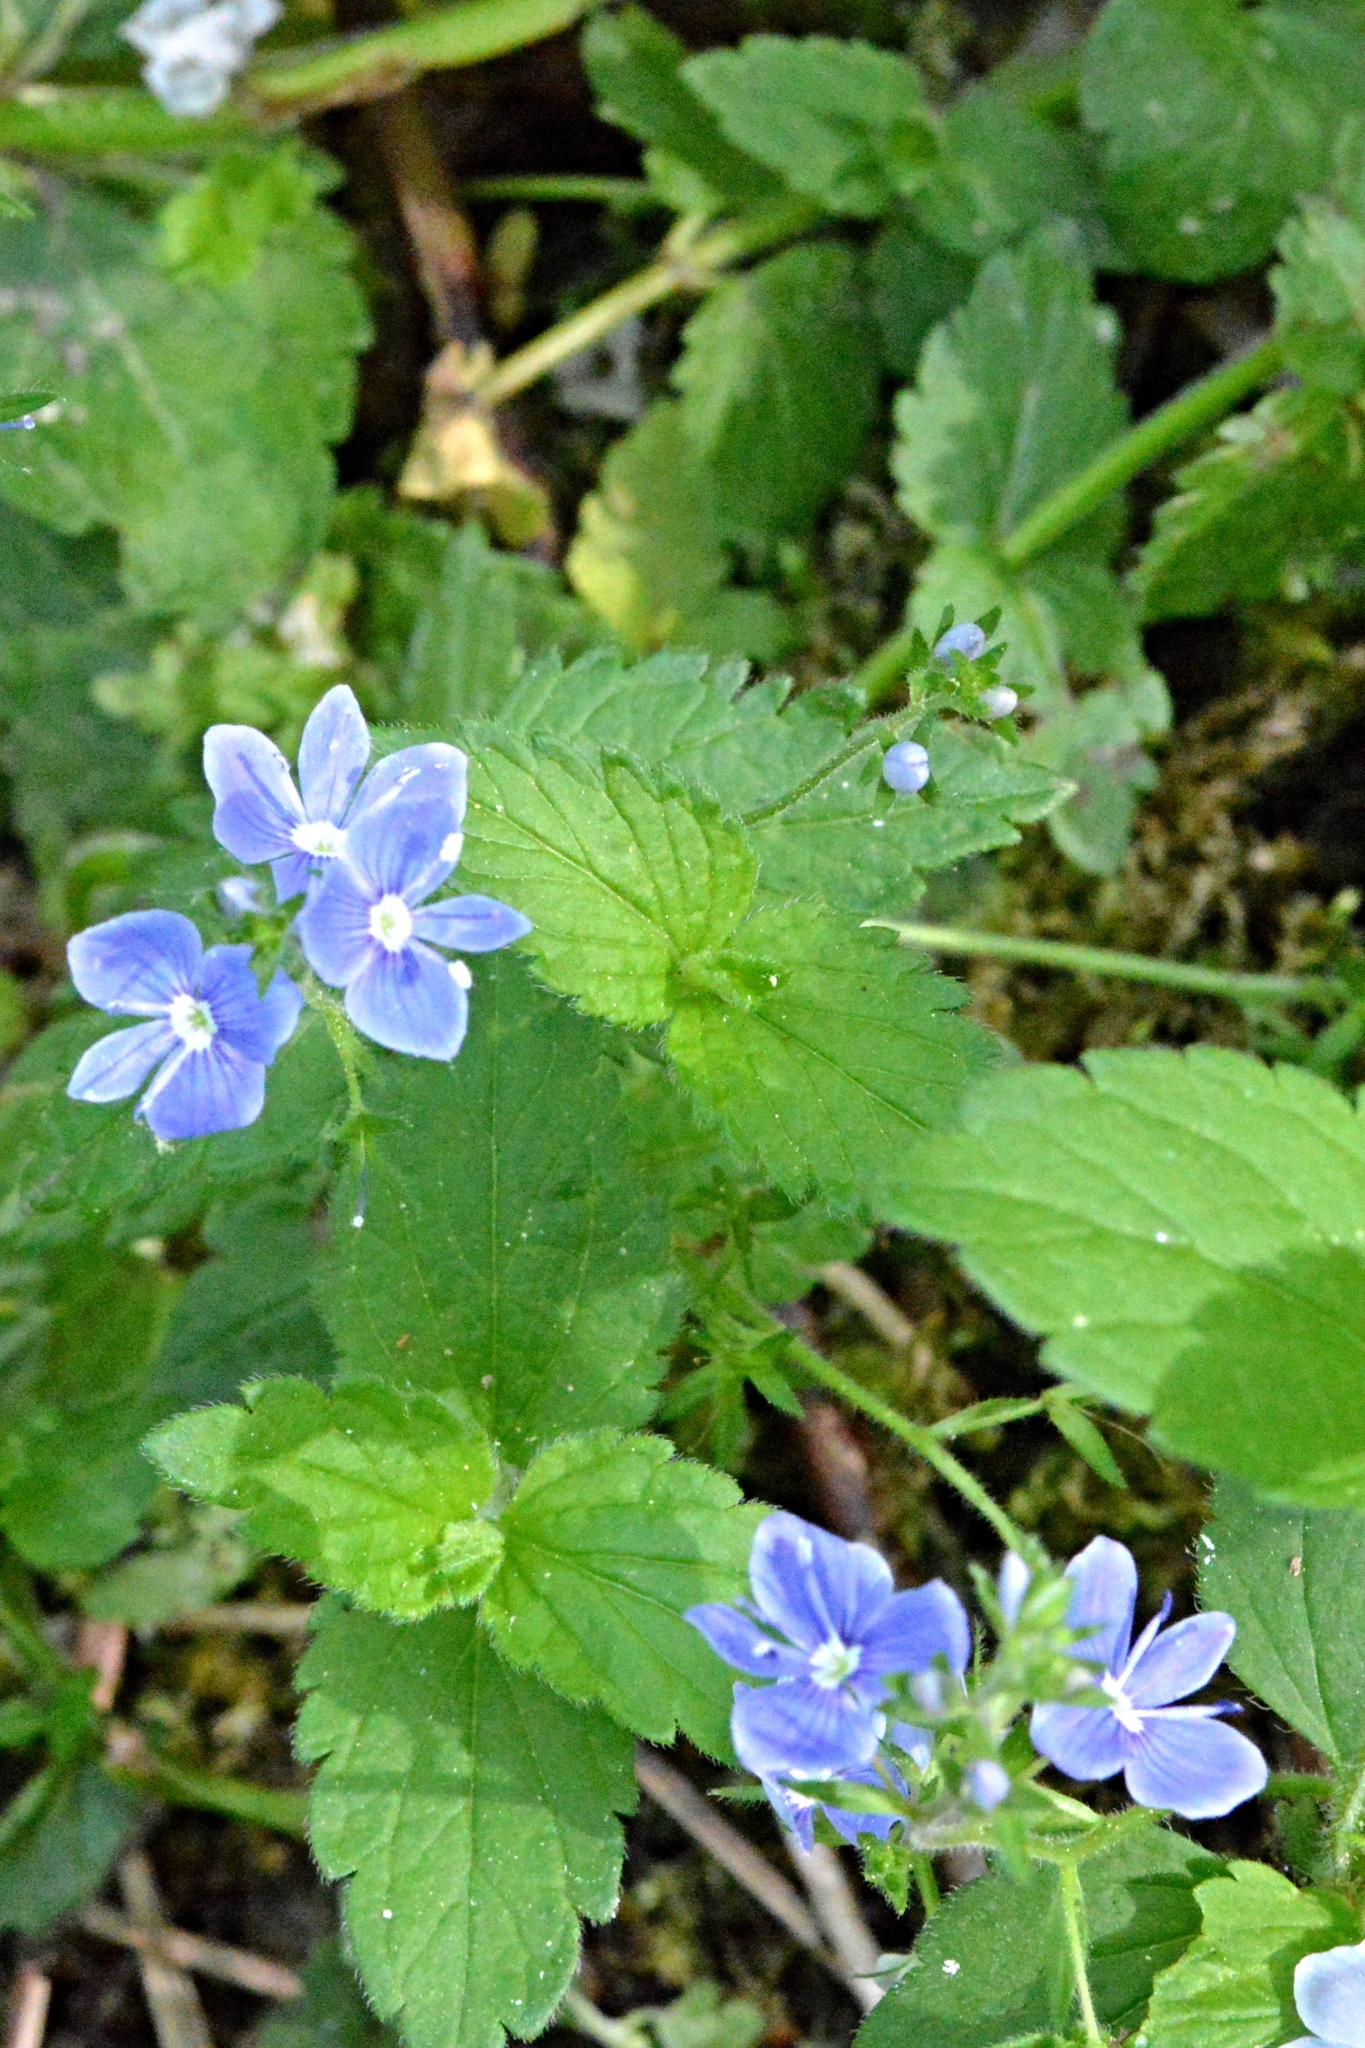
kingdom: Plantae
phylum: Tracheophyta
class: Magnoliopsida
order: Lamiales
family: Plantaginaceae
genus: Veronica
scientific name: Veronica chamaedrys
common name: Germander speedwell
